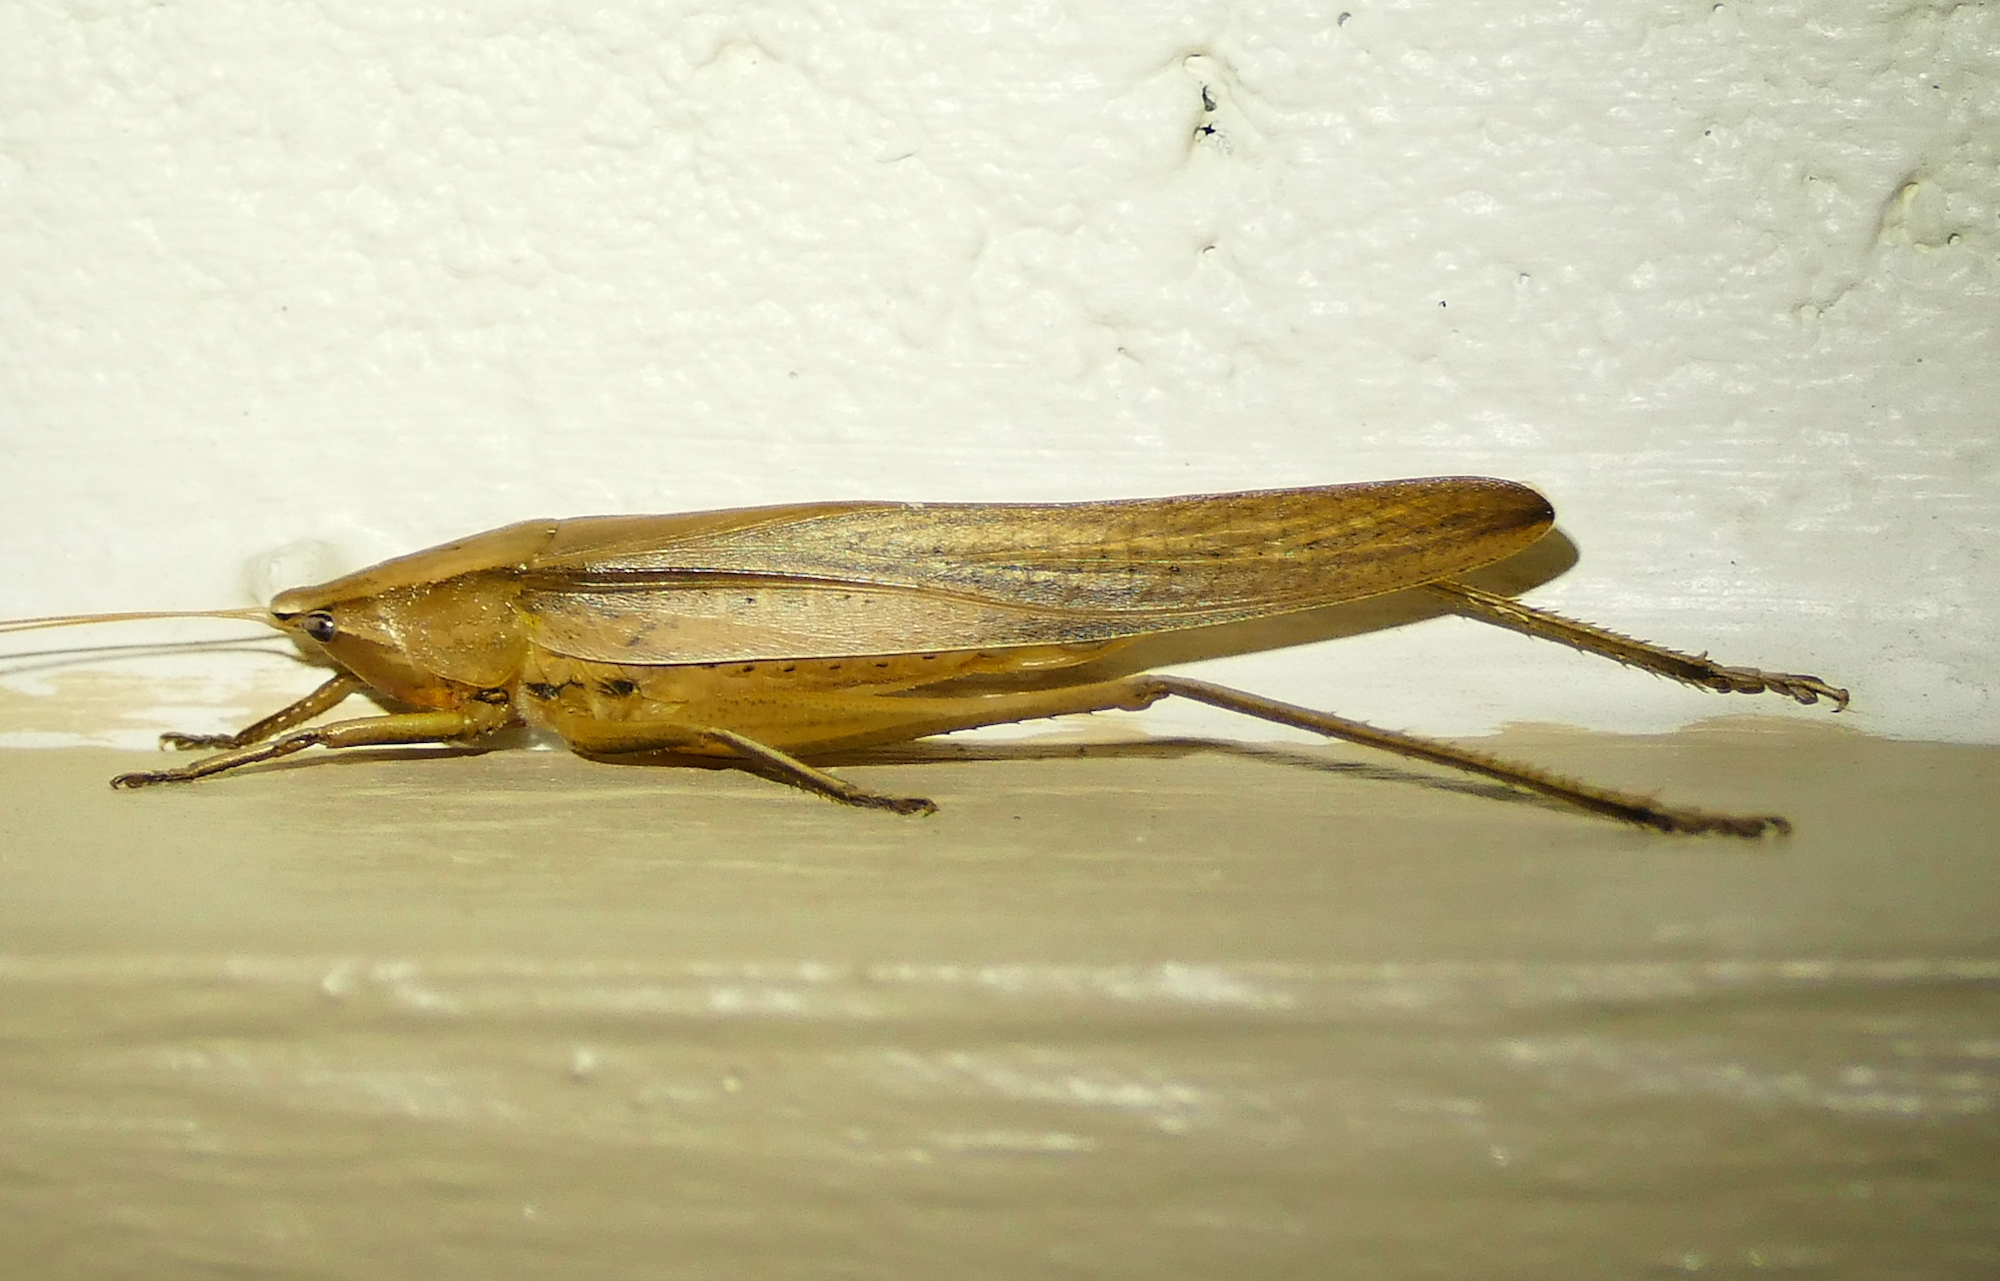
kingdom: Animalia
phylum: Arthropoda
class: Insecta
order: Orthoptera
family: Tettigoniidae
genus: Neoconocephalus
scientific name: Neoconocephalus triops
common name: Broad-tipped conehead
